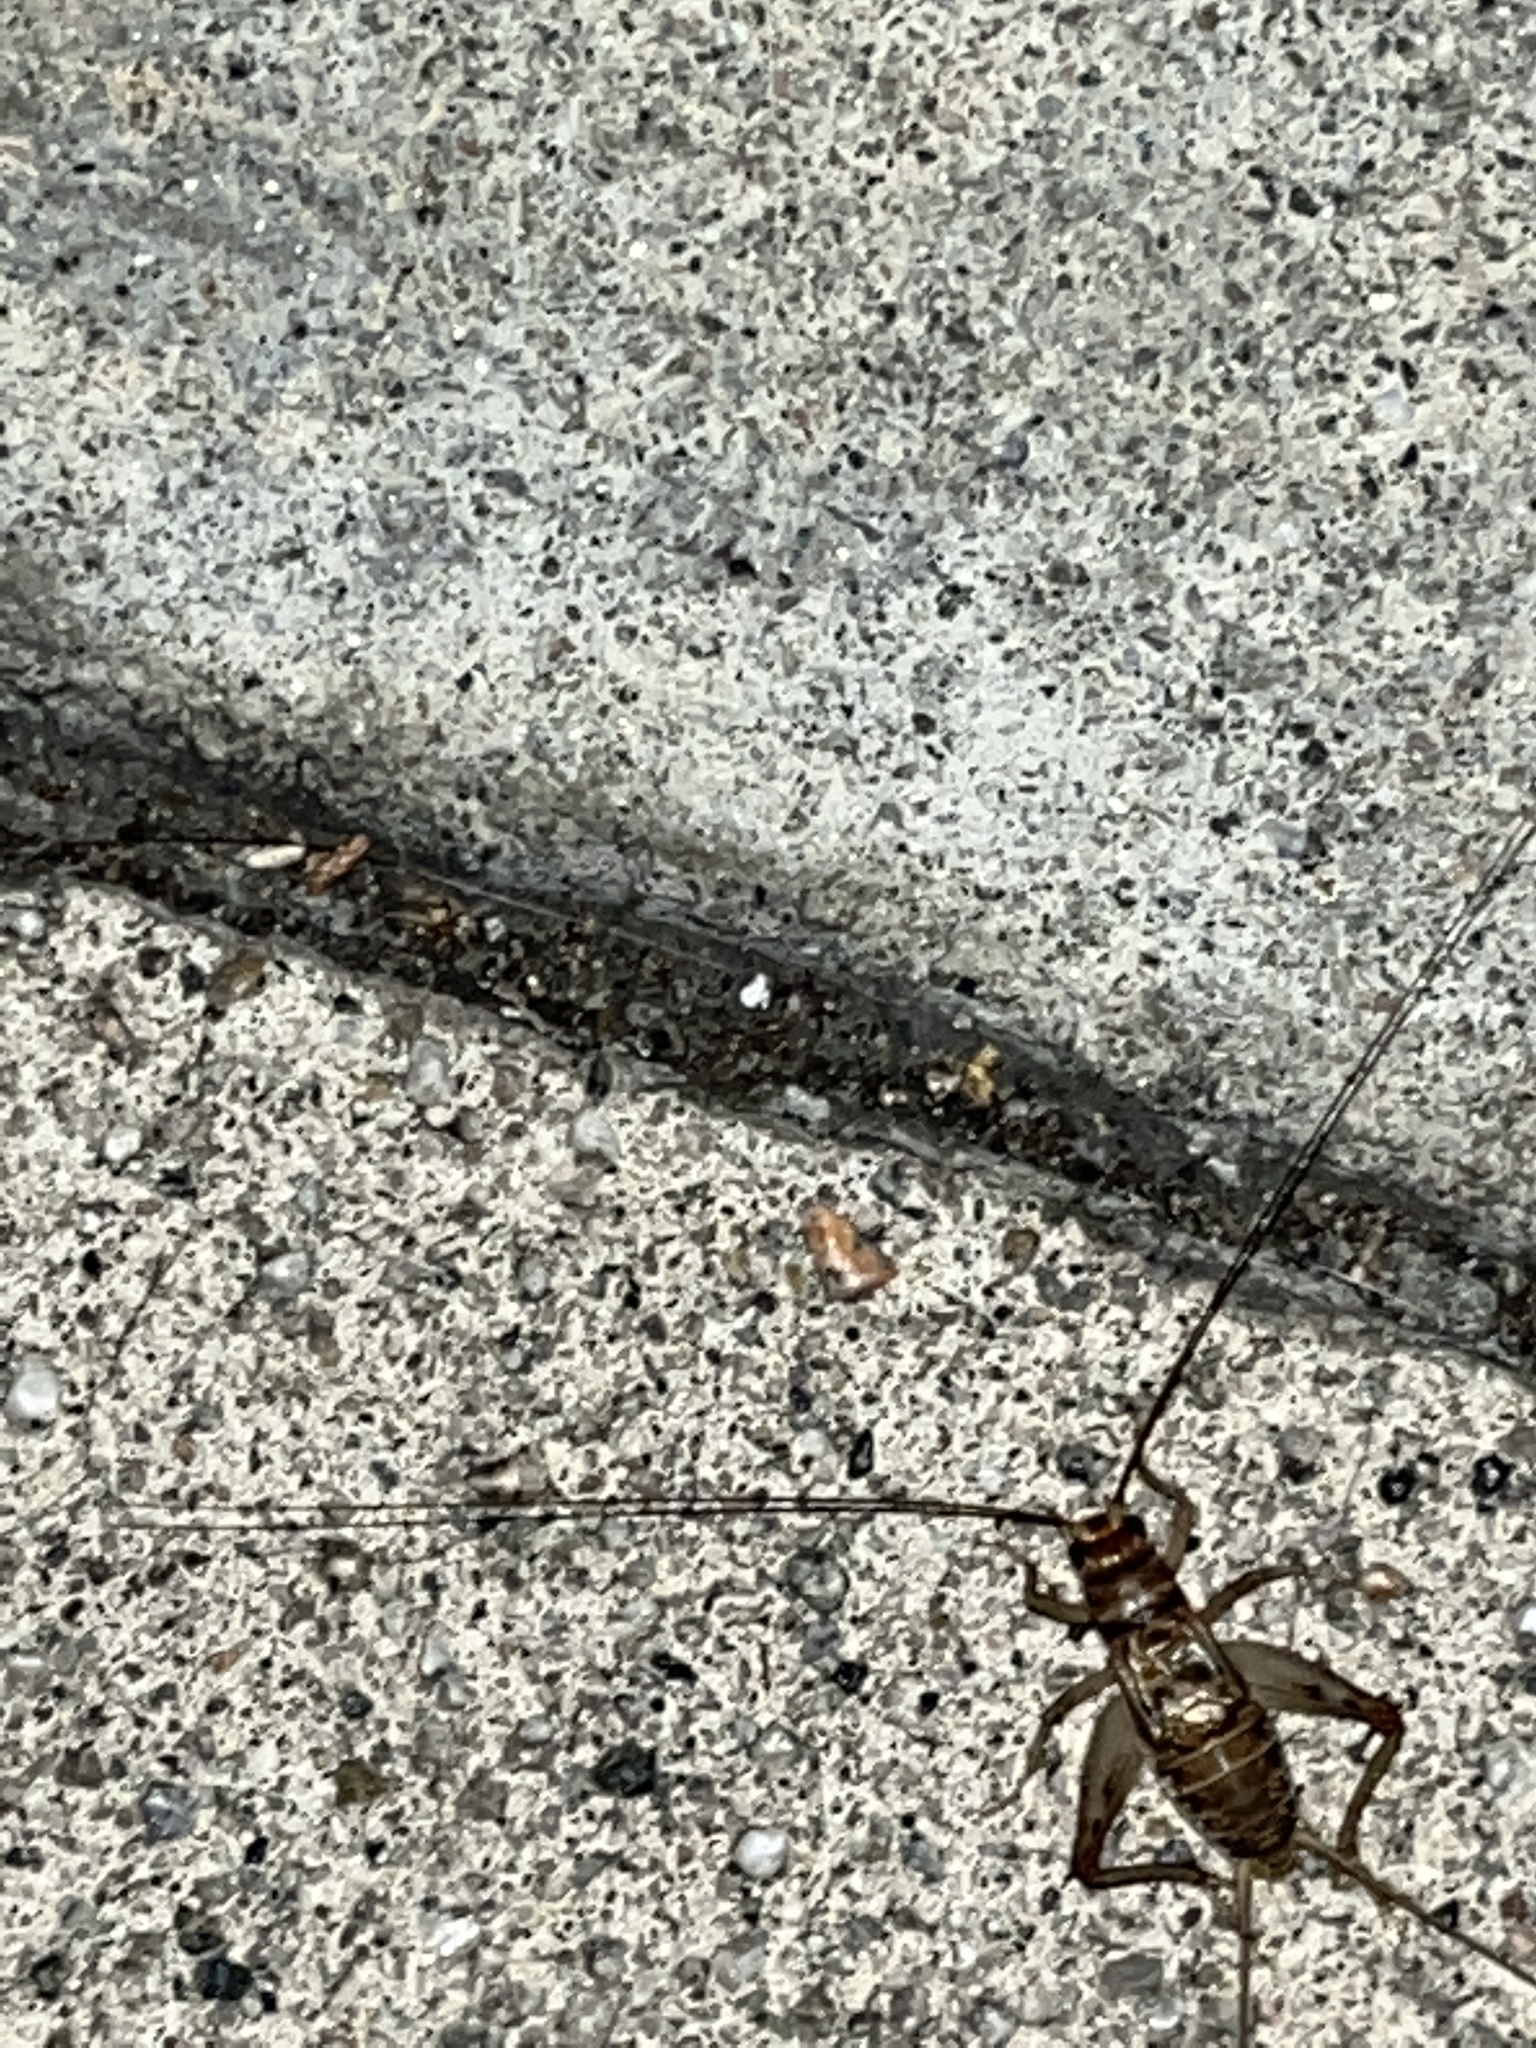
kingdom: Animalia
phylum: Arthropoda
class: Insecta
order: Orthoptera
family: Gryllidae
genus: Gryllodes
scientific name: Gryllodes sigillatus
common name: Tropical house cricket
